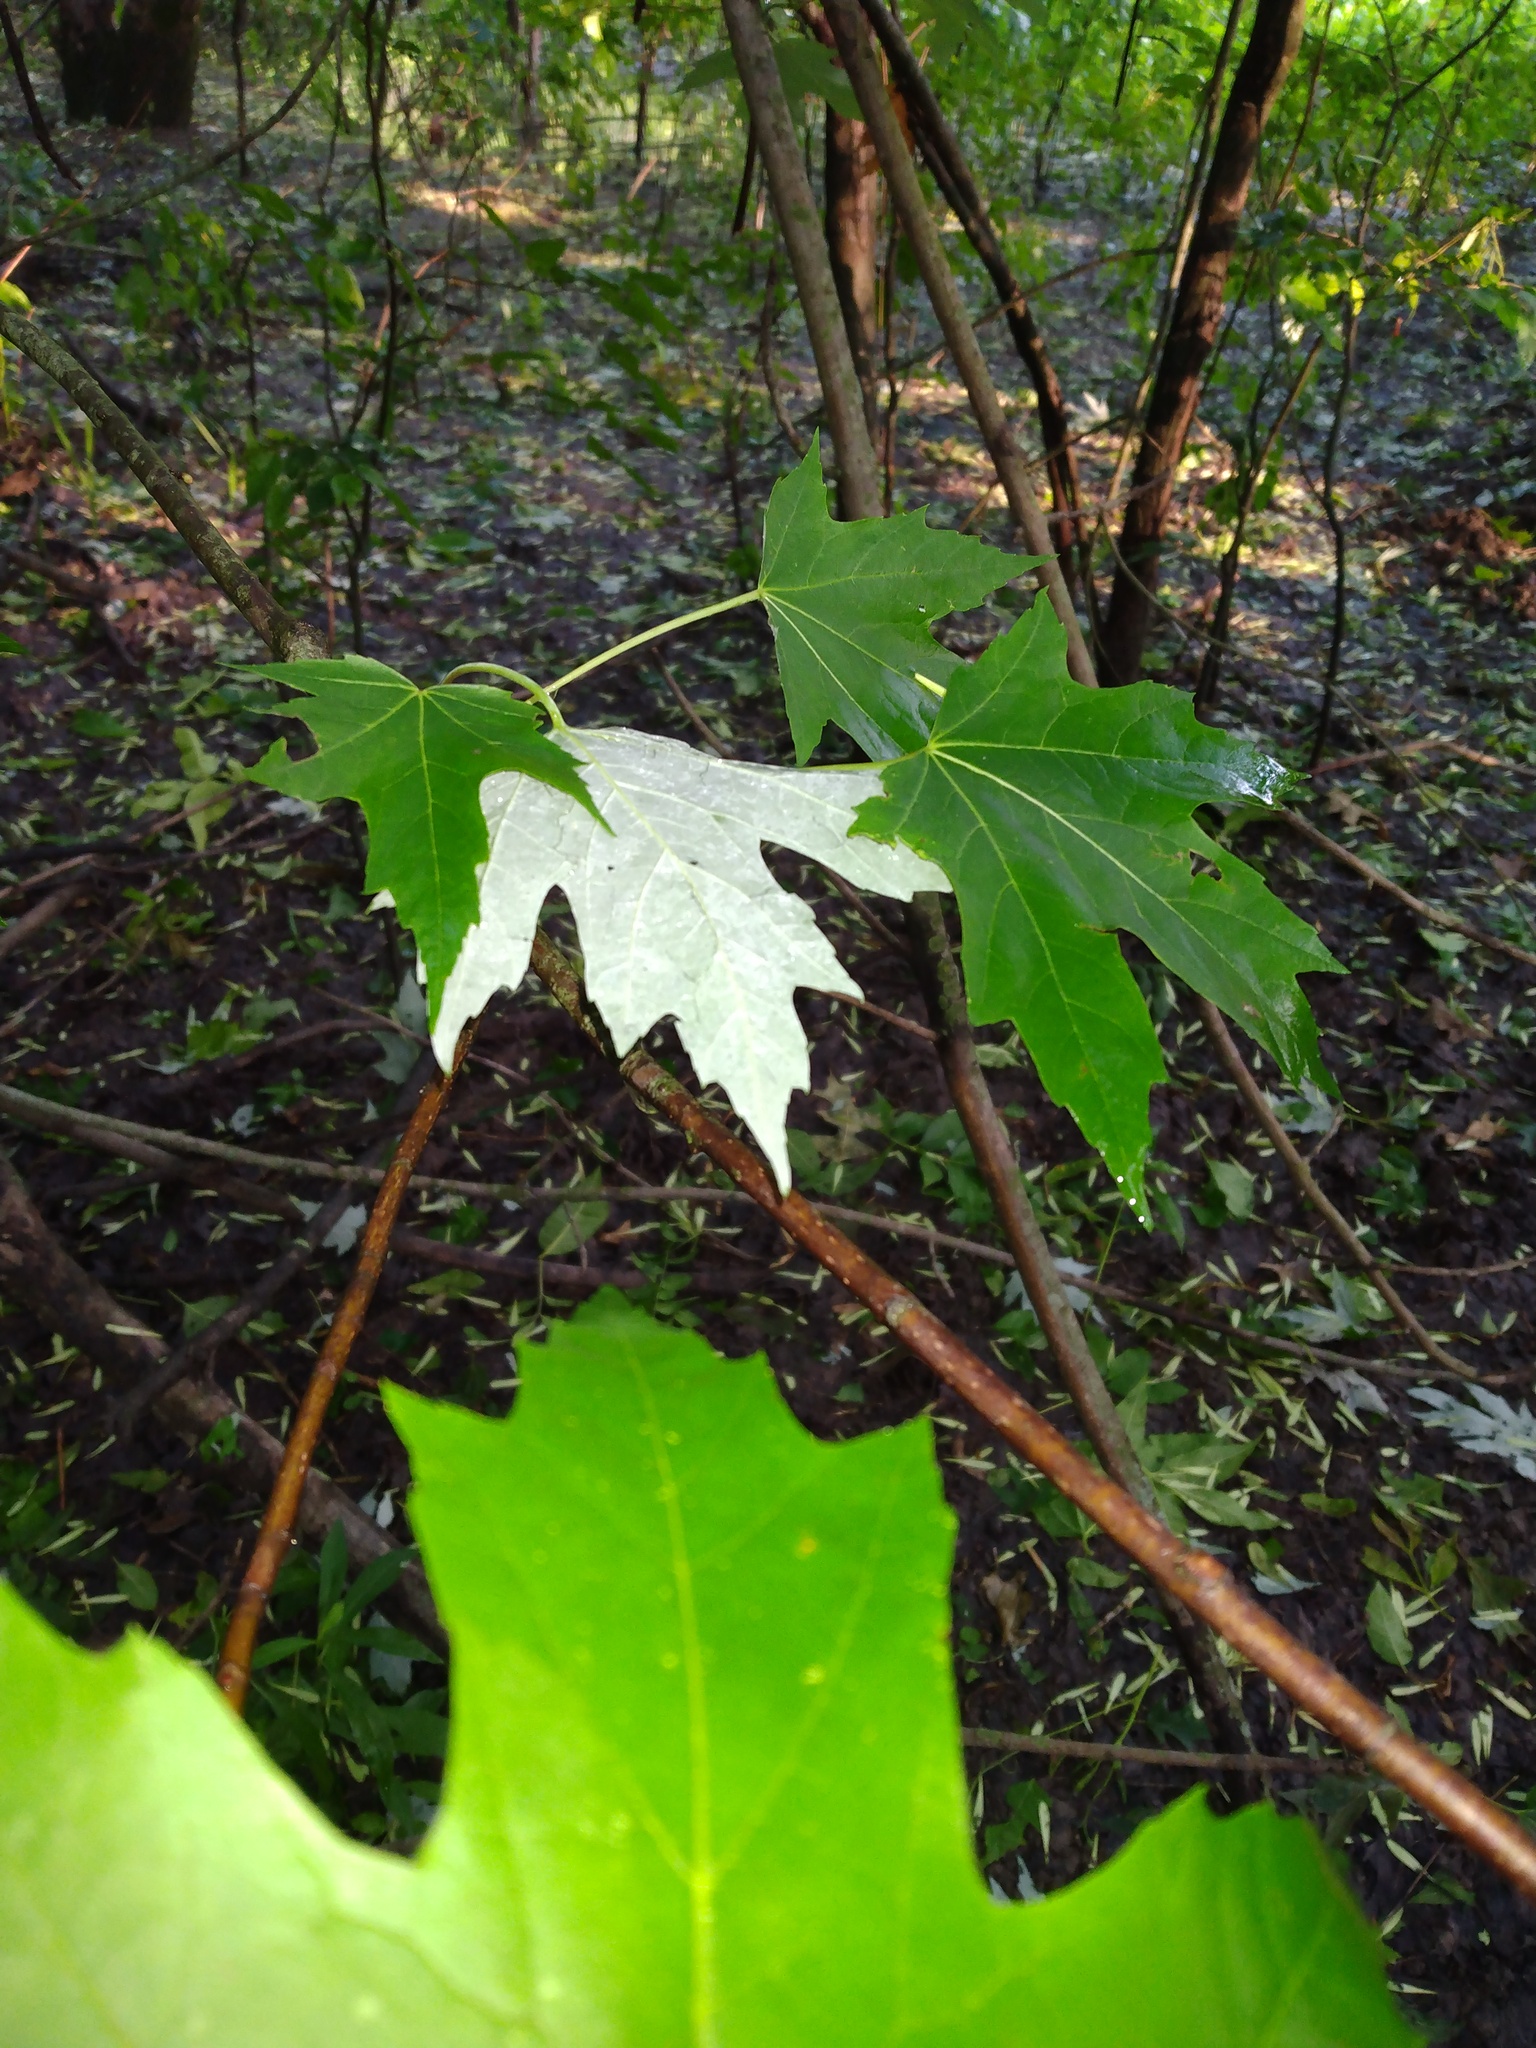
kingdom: Plantae
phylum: Tracheophyta
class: Magnoliopsida
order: Sapindales
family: Sapindaceae
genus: Acer
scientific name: Acer saccharinum
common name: Silver maple
